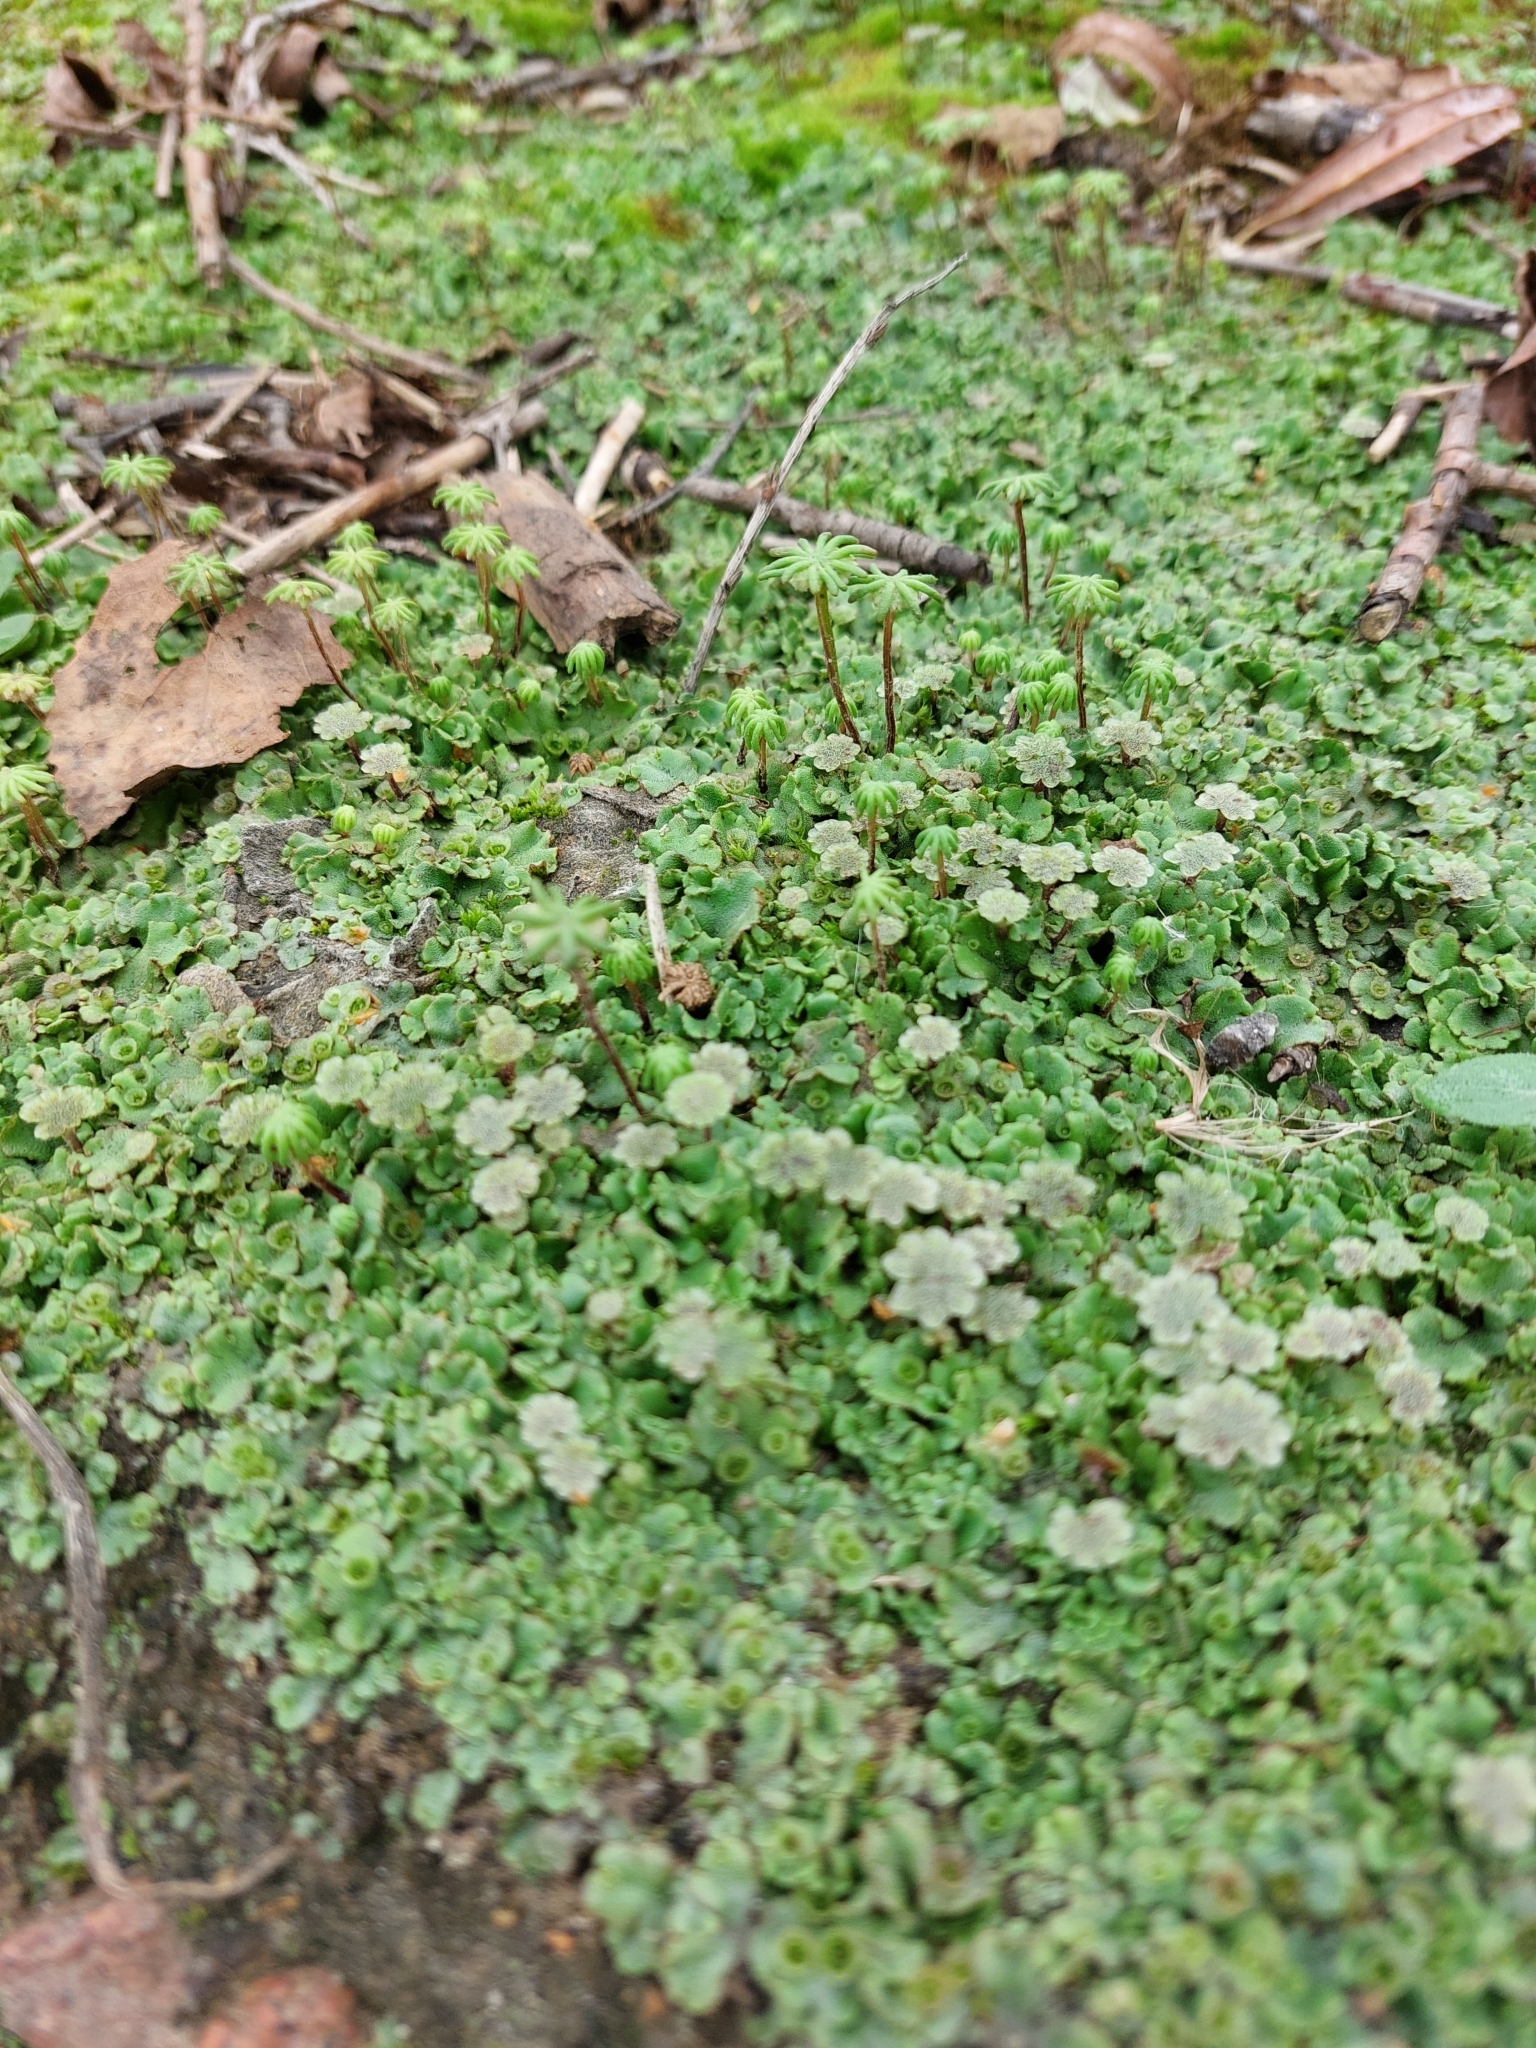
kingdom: Plantae
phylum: Marchantiophyta
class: Marchantiopsida
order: Marchantiales
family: Marchantiaceae
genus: Marchantia
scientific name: Marchantia polymorpha
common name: Common liverwort
